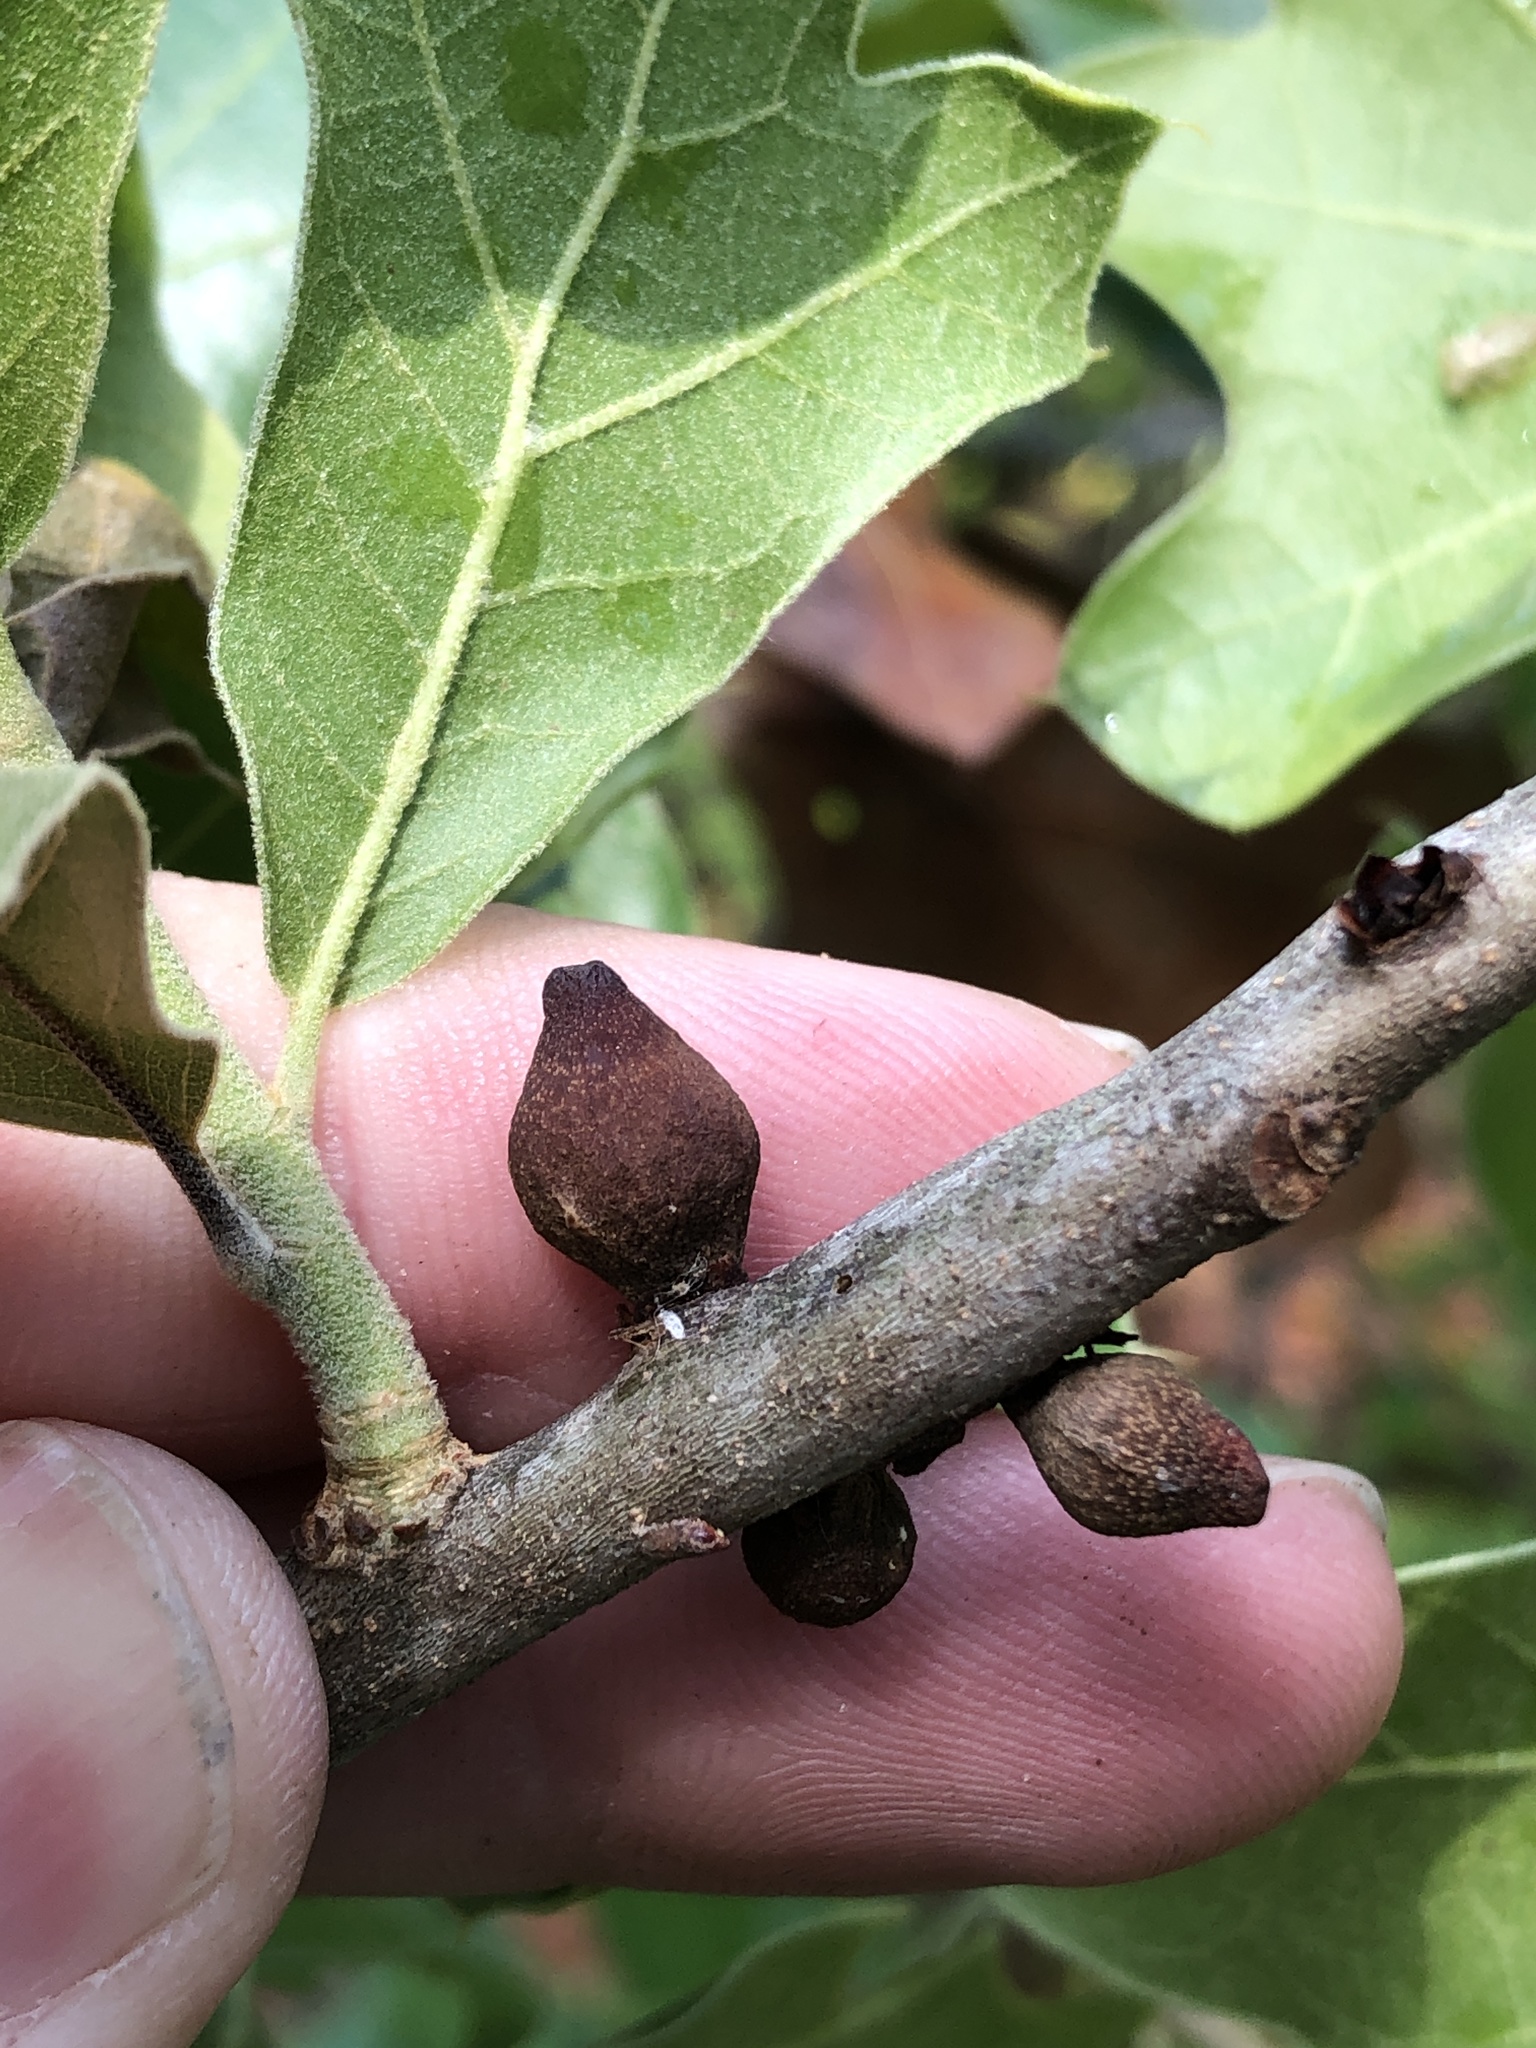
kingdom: Animalia
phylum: Arthropoda
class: Insecta
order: Hymenoptera
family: Cynipidae
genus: Kokkocynips
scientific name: Kokkocynips imbricariae
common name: Banded bullet gall wasp
